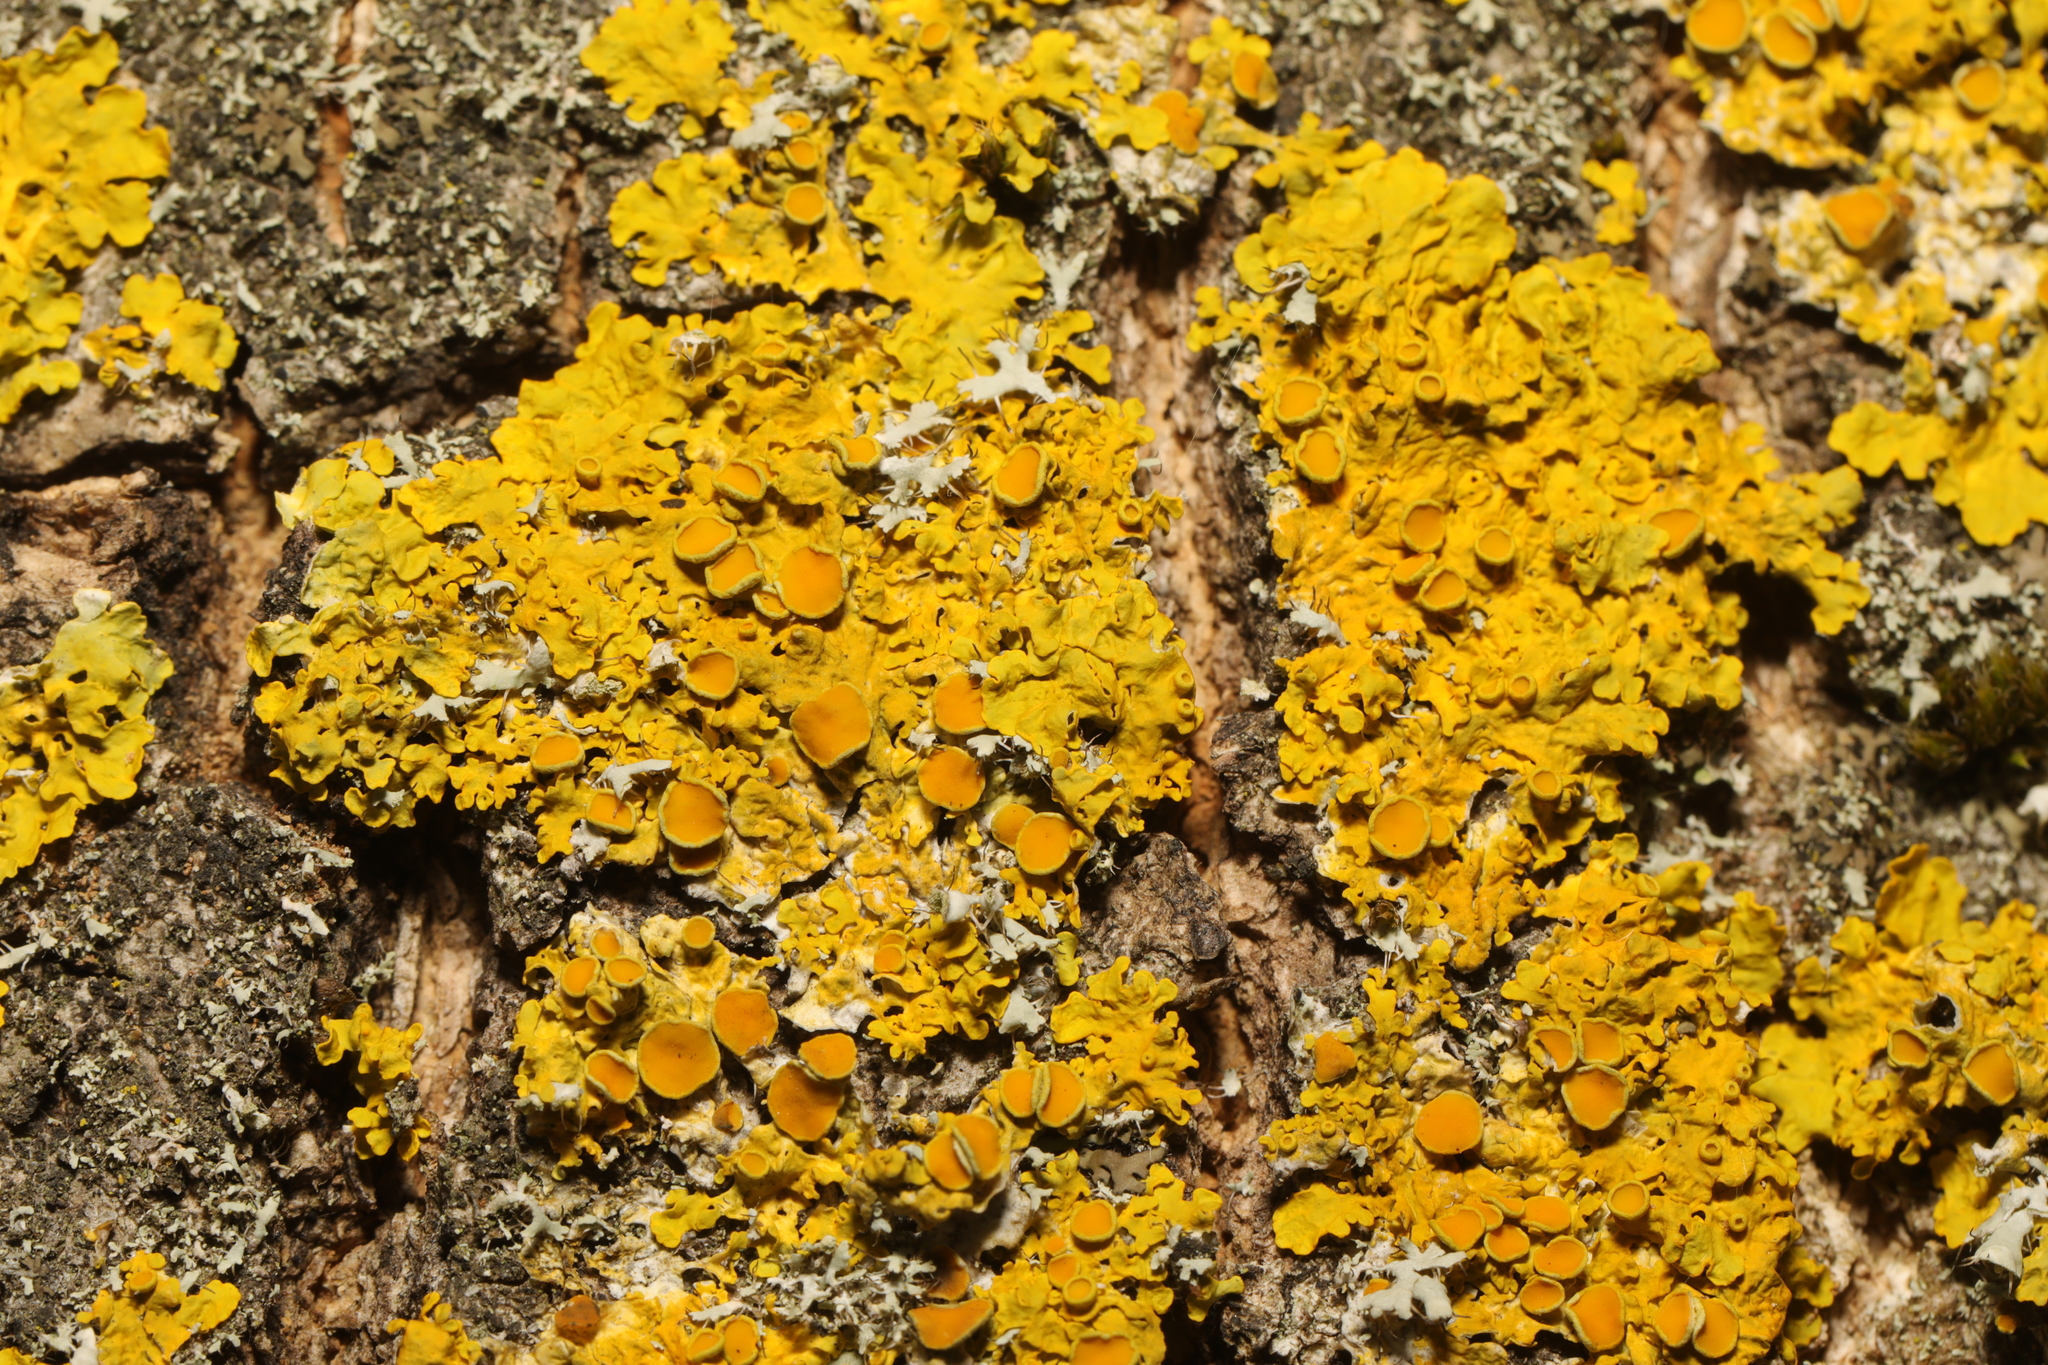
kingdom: Fungi
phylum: Ascomycota
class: Lecanoromycetes
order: Teloschistales
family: Teloschistaceae
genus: Xanthoria
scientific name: Xanthoria parietina
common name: Common orange lichen
